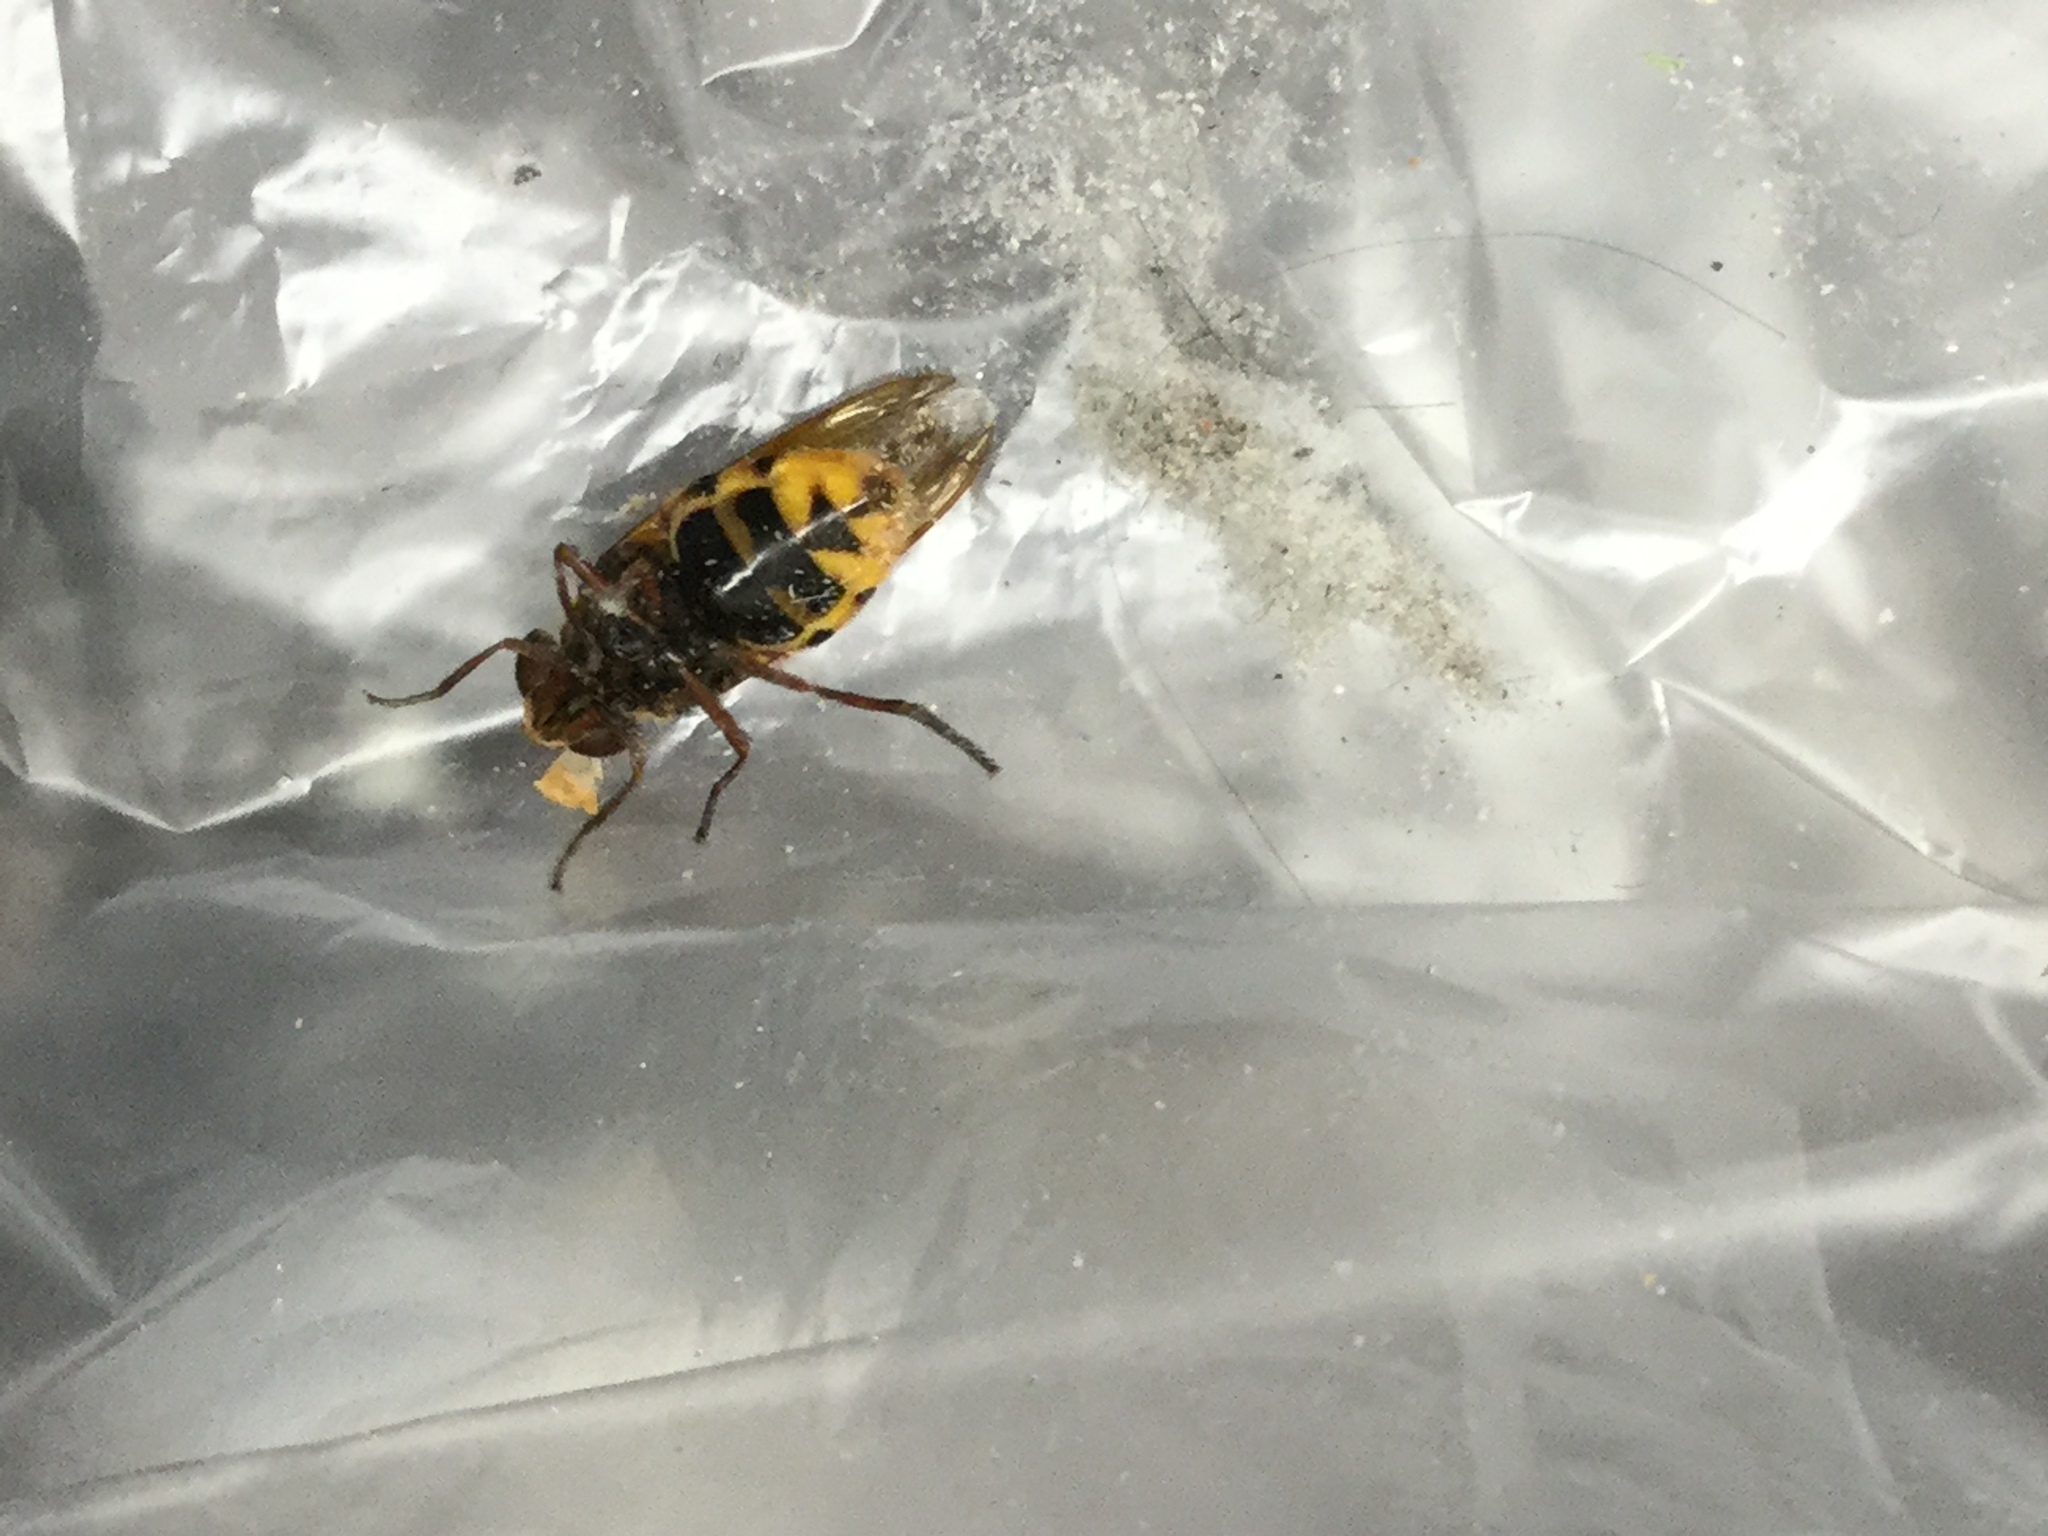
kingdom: Animalia
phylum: Arthropoda
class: Insecta
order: Diptera
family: Syrphidae
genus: Volucella
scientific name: Volucella zonaria
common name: Hornet hoverfly
